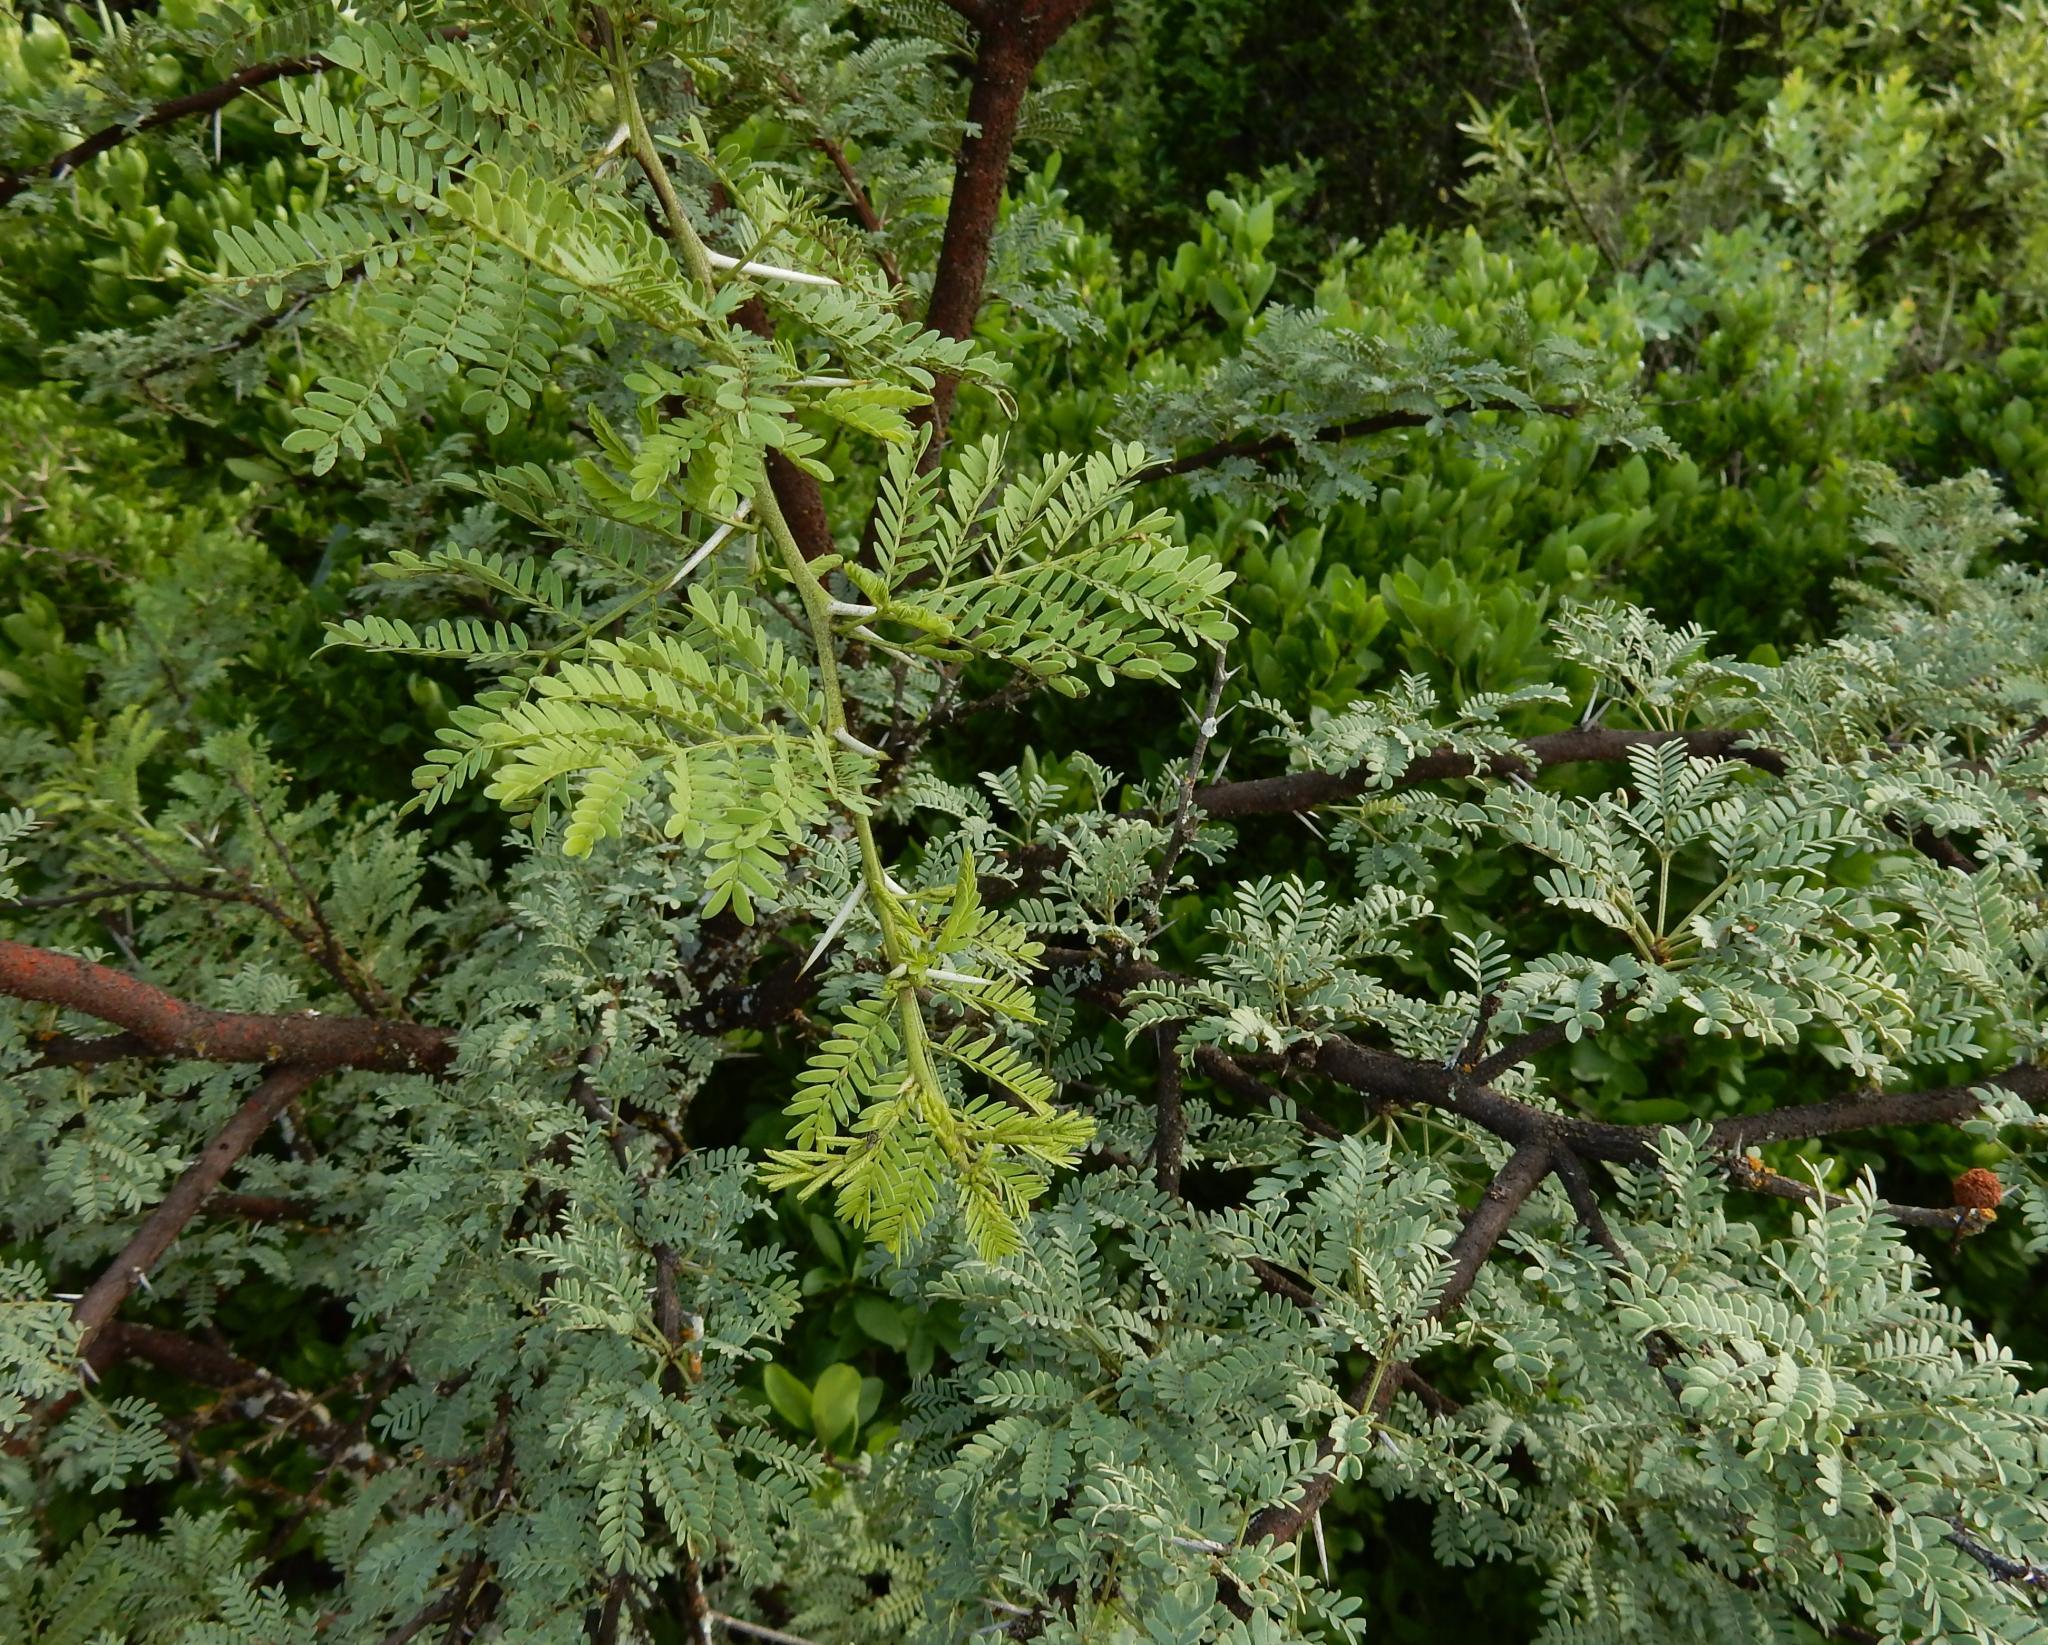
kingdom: Plantae
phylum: Tracheophyta
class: Magnoliopsida
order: Fabales
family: Fabaceae
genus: Vachellia
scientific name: Vachellia karroo
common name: Sweet thorn
